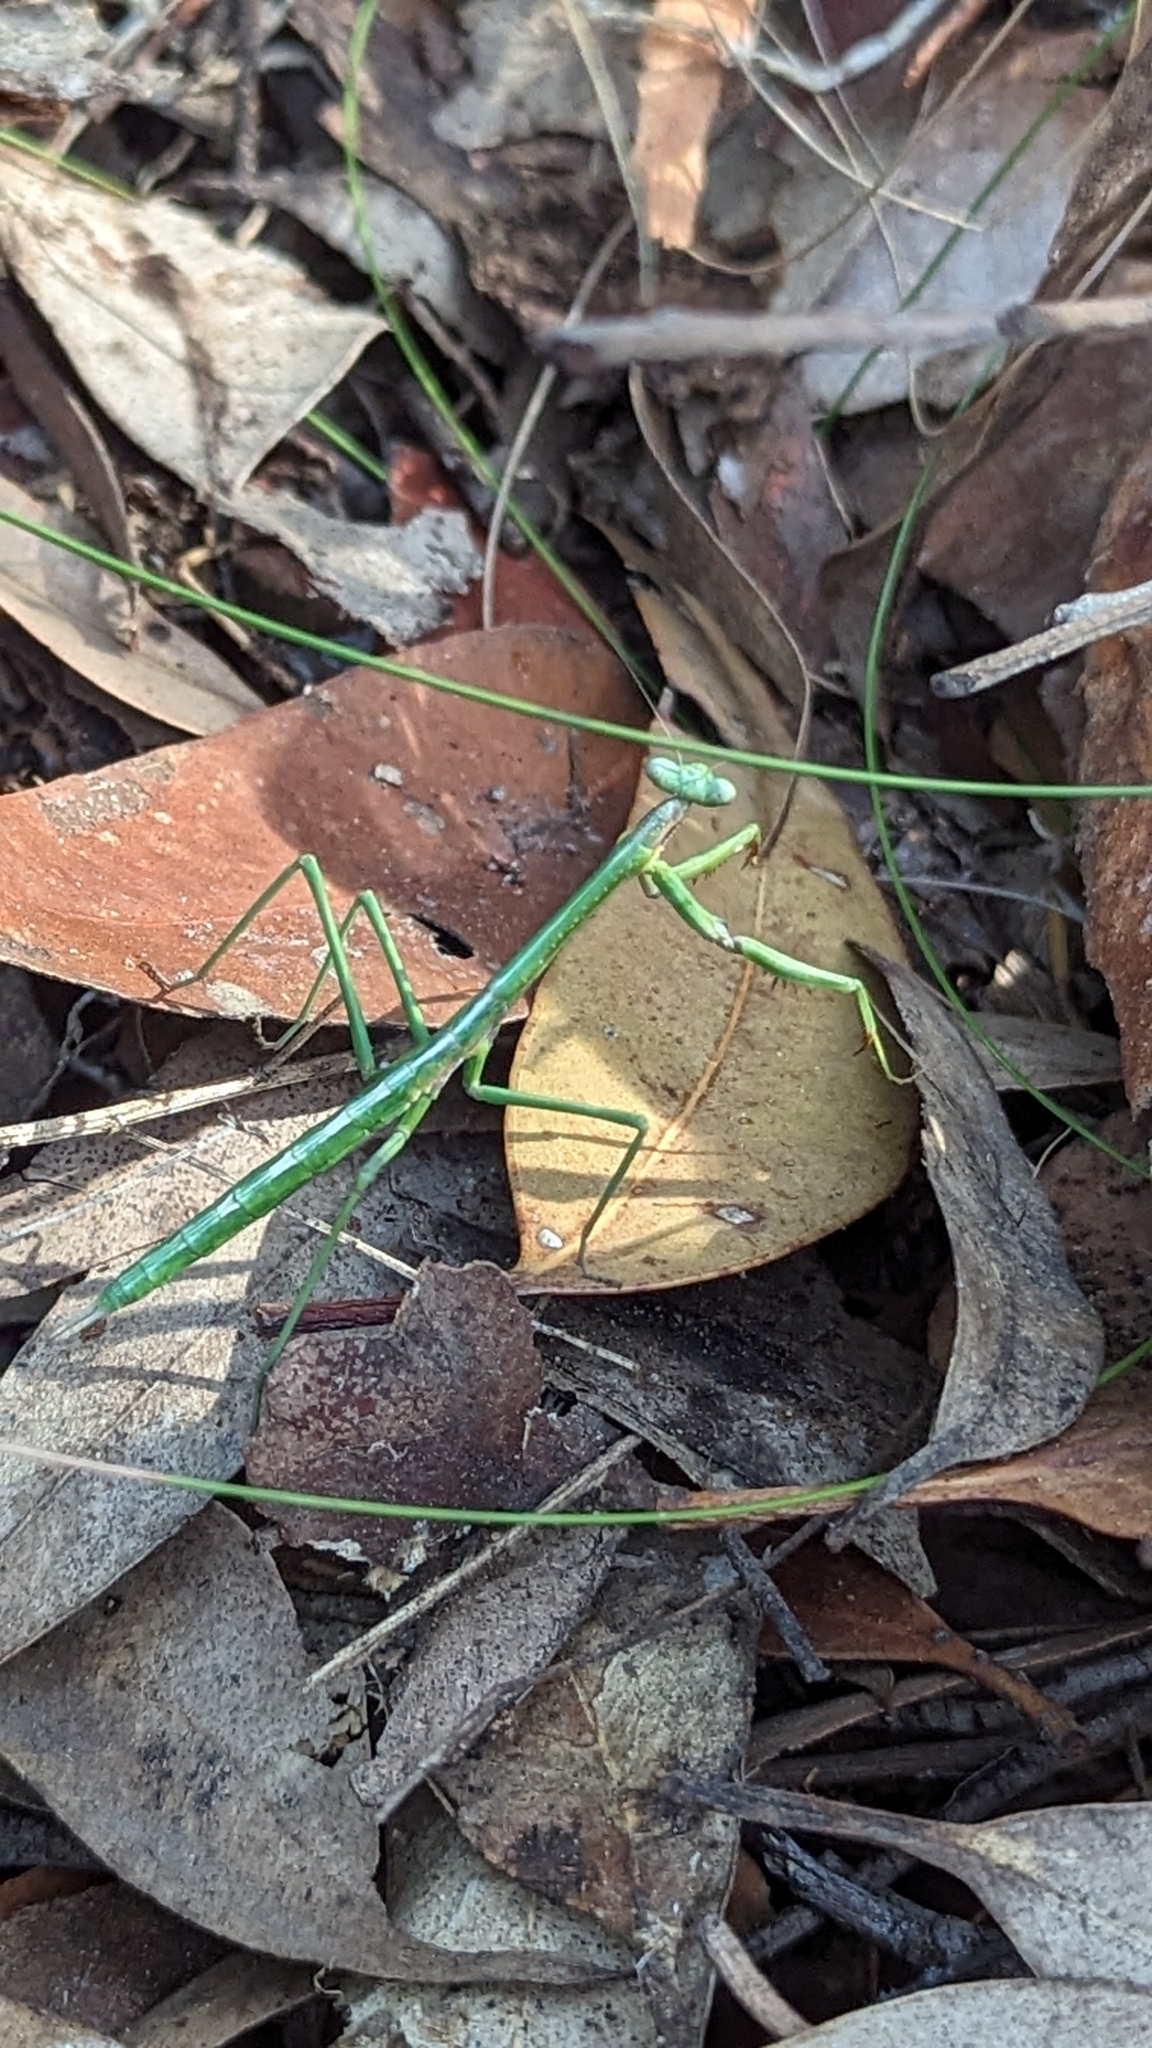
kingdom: Animalia
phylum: Arthropoda
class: Insecta
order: Mantodea
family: Mantidae
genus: Archimantis
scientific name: Archimantis latistyla
